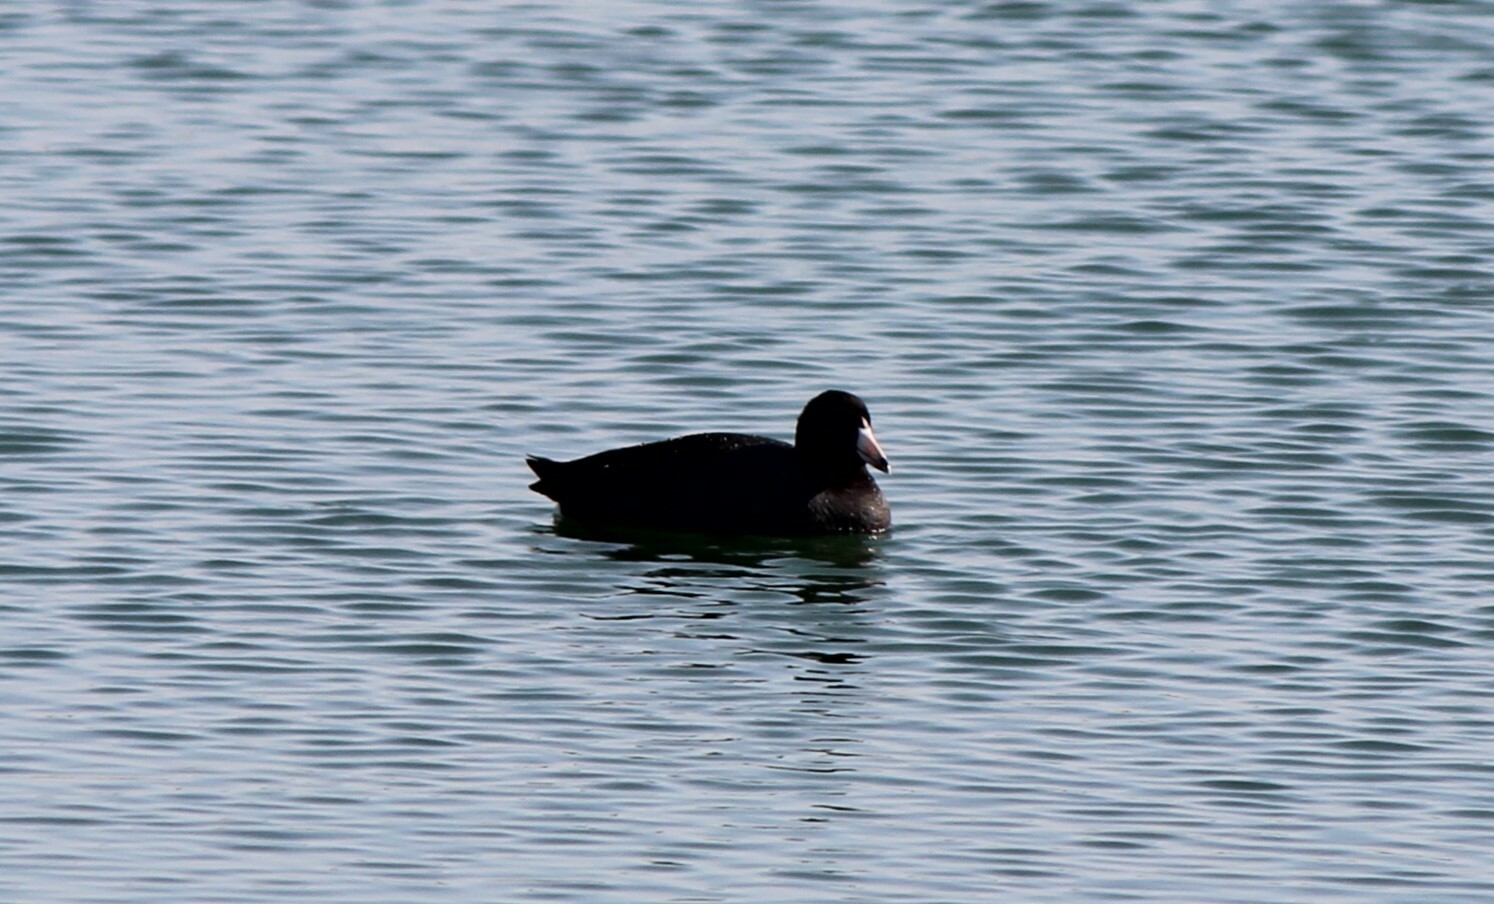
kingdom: Animalia
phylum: Chordata
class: Aves
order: Gruiformes
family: Rallidae
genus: Fulica
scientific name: Fulica americana
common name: American coot
